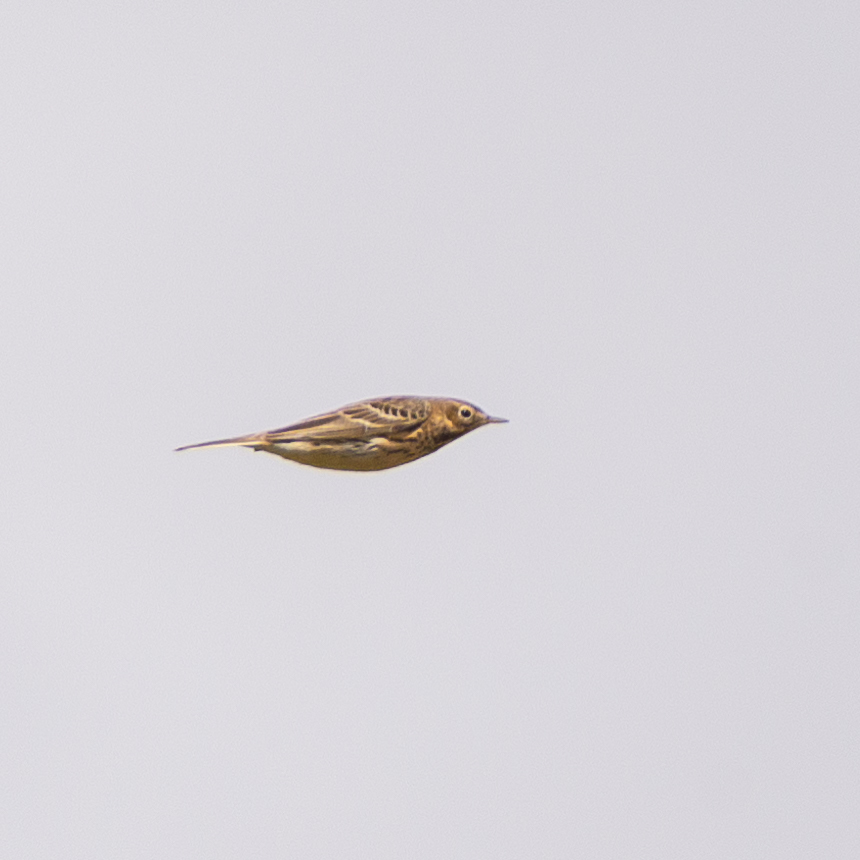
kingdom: Animalia
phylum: Chordata
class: Aves
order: Passeriformes
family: Motacillidae
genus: Anthus
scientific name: Anthus pratensis
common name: Meadow pipit
